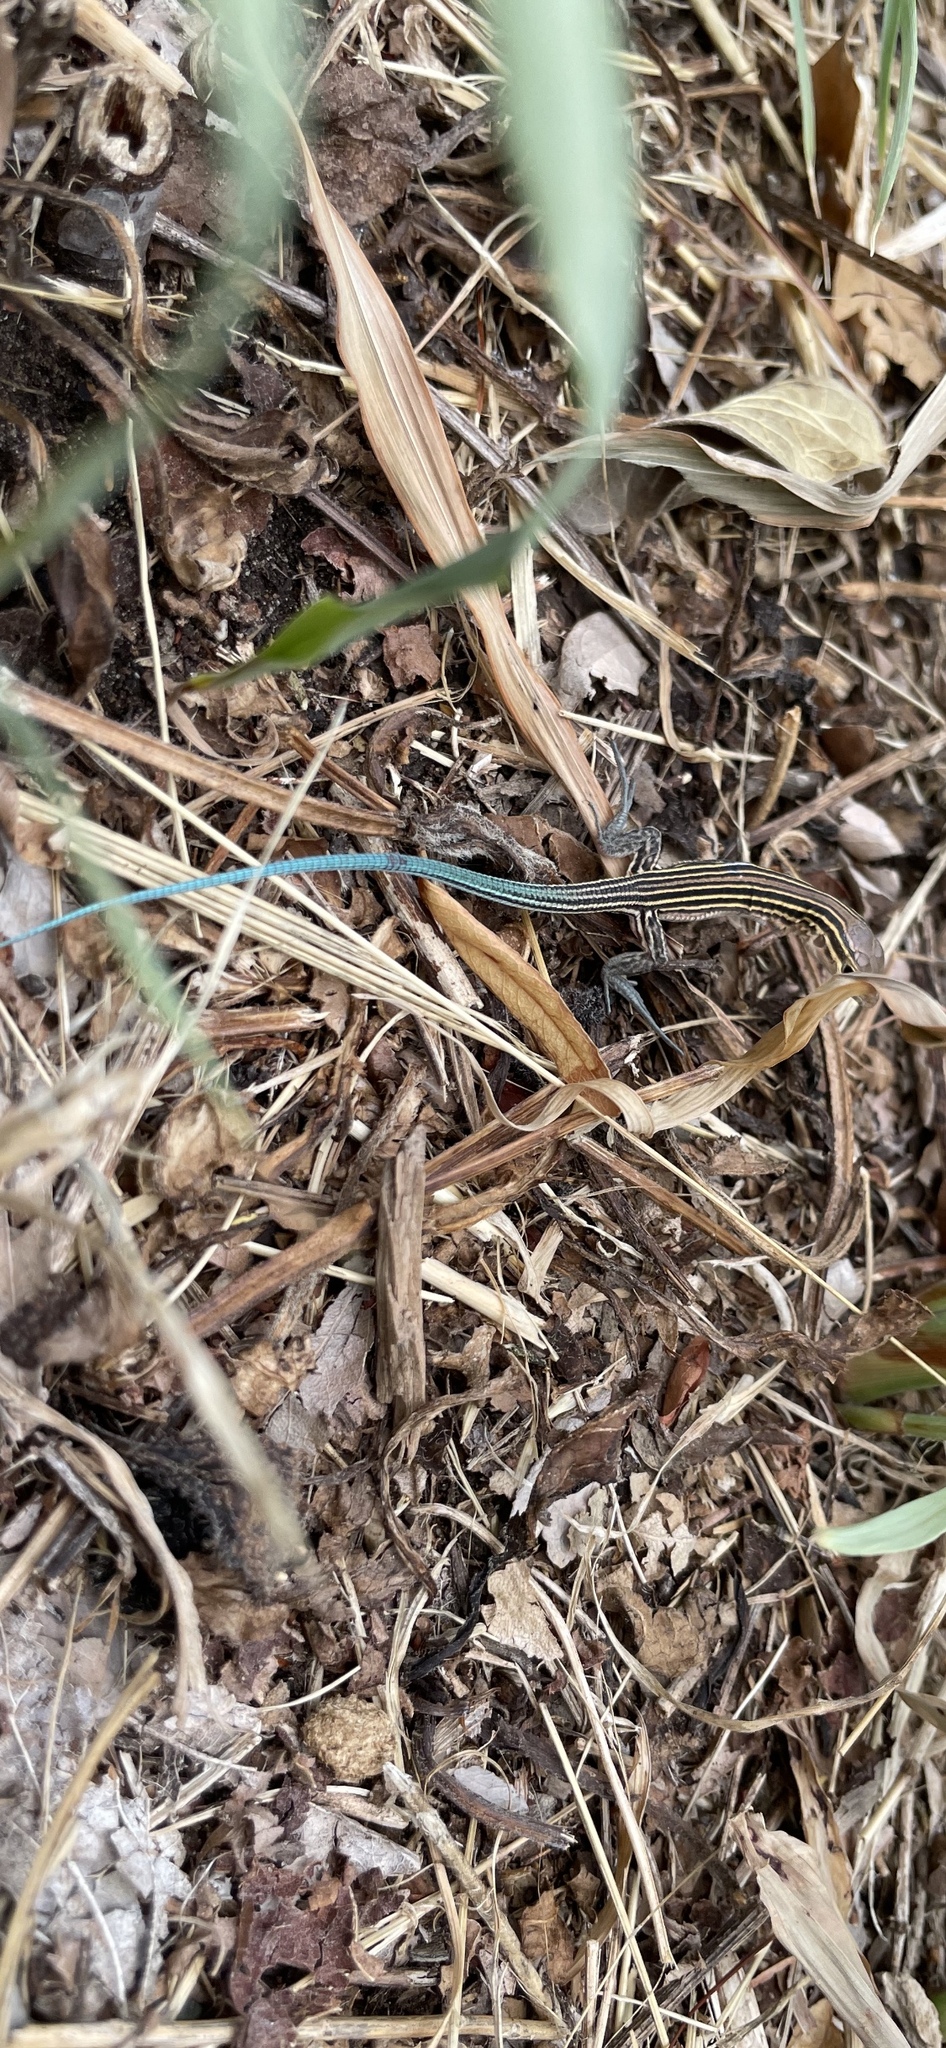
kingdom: Animalia
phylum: Chordata
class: Squamata
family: Teiidae
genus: Aspidoscelis
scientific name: Aspidoscelis sexlineatus
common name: Six-lined racerunner
